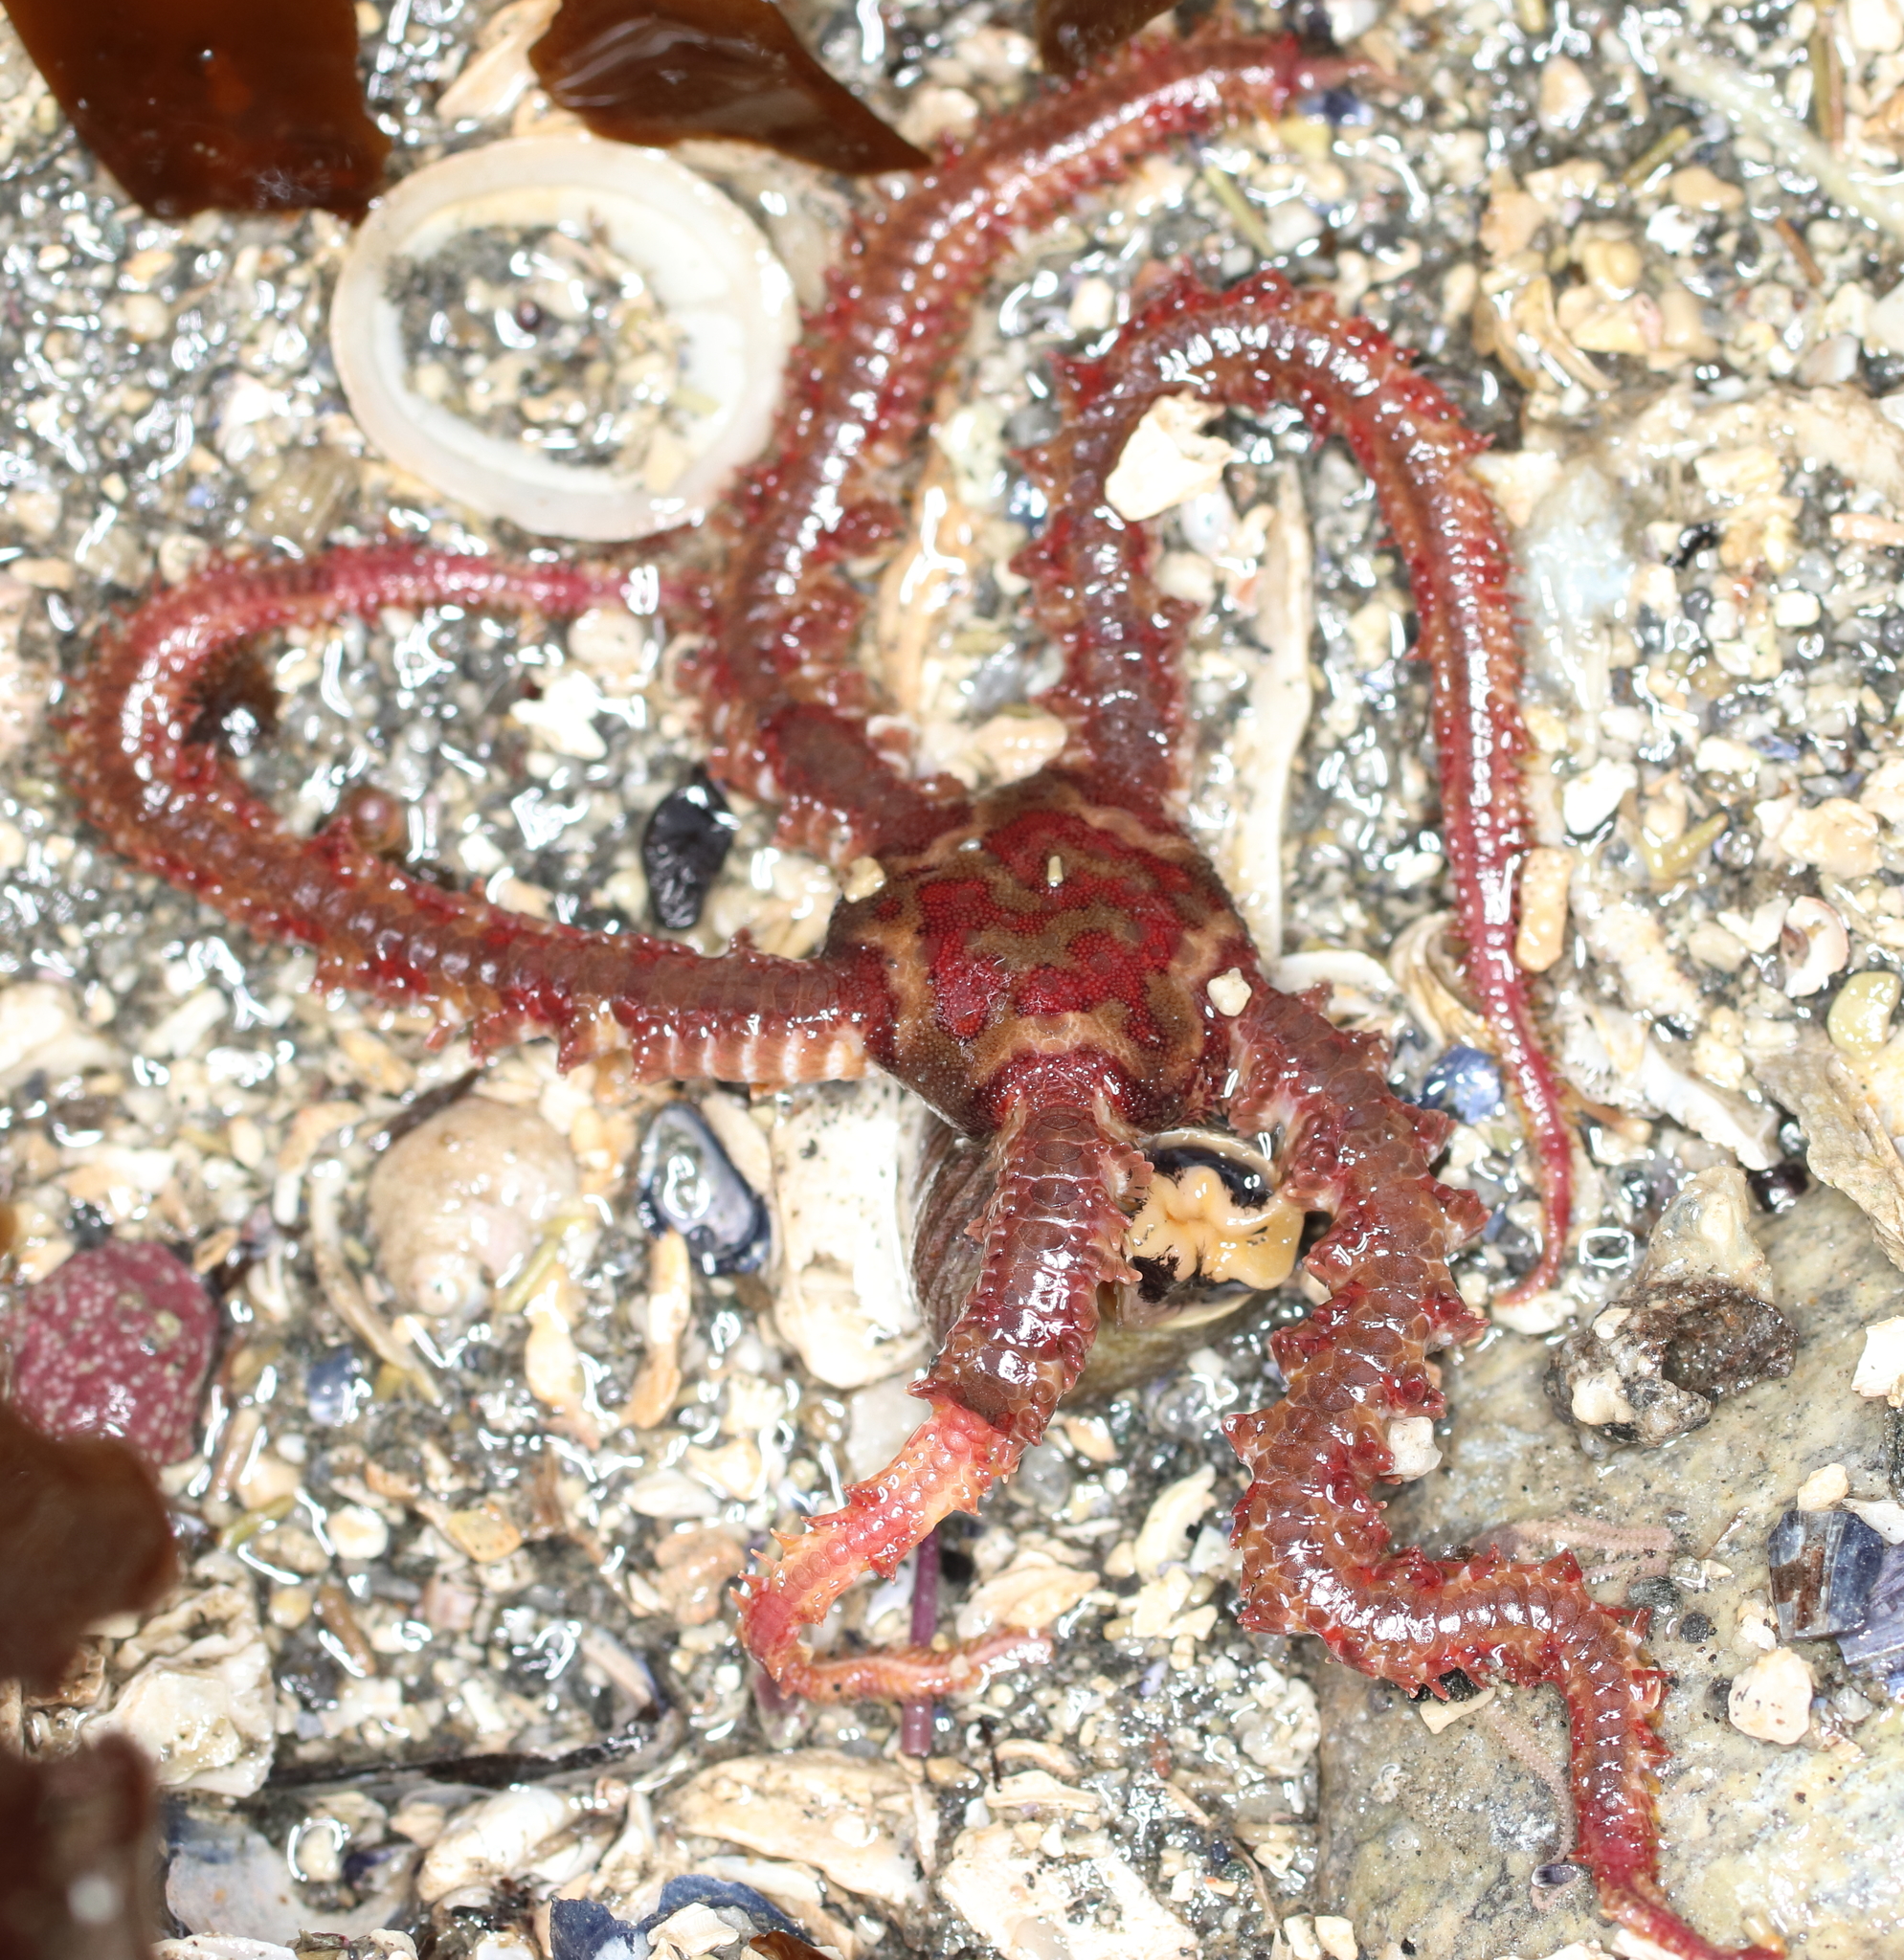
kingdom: Animalia
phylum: Echinodermata
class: Ophiuroidea
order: Amphilepidida
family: Ophiopholidae
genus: Ophiopholis
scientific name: Ophiopholis kennerlyi
